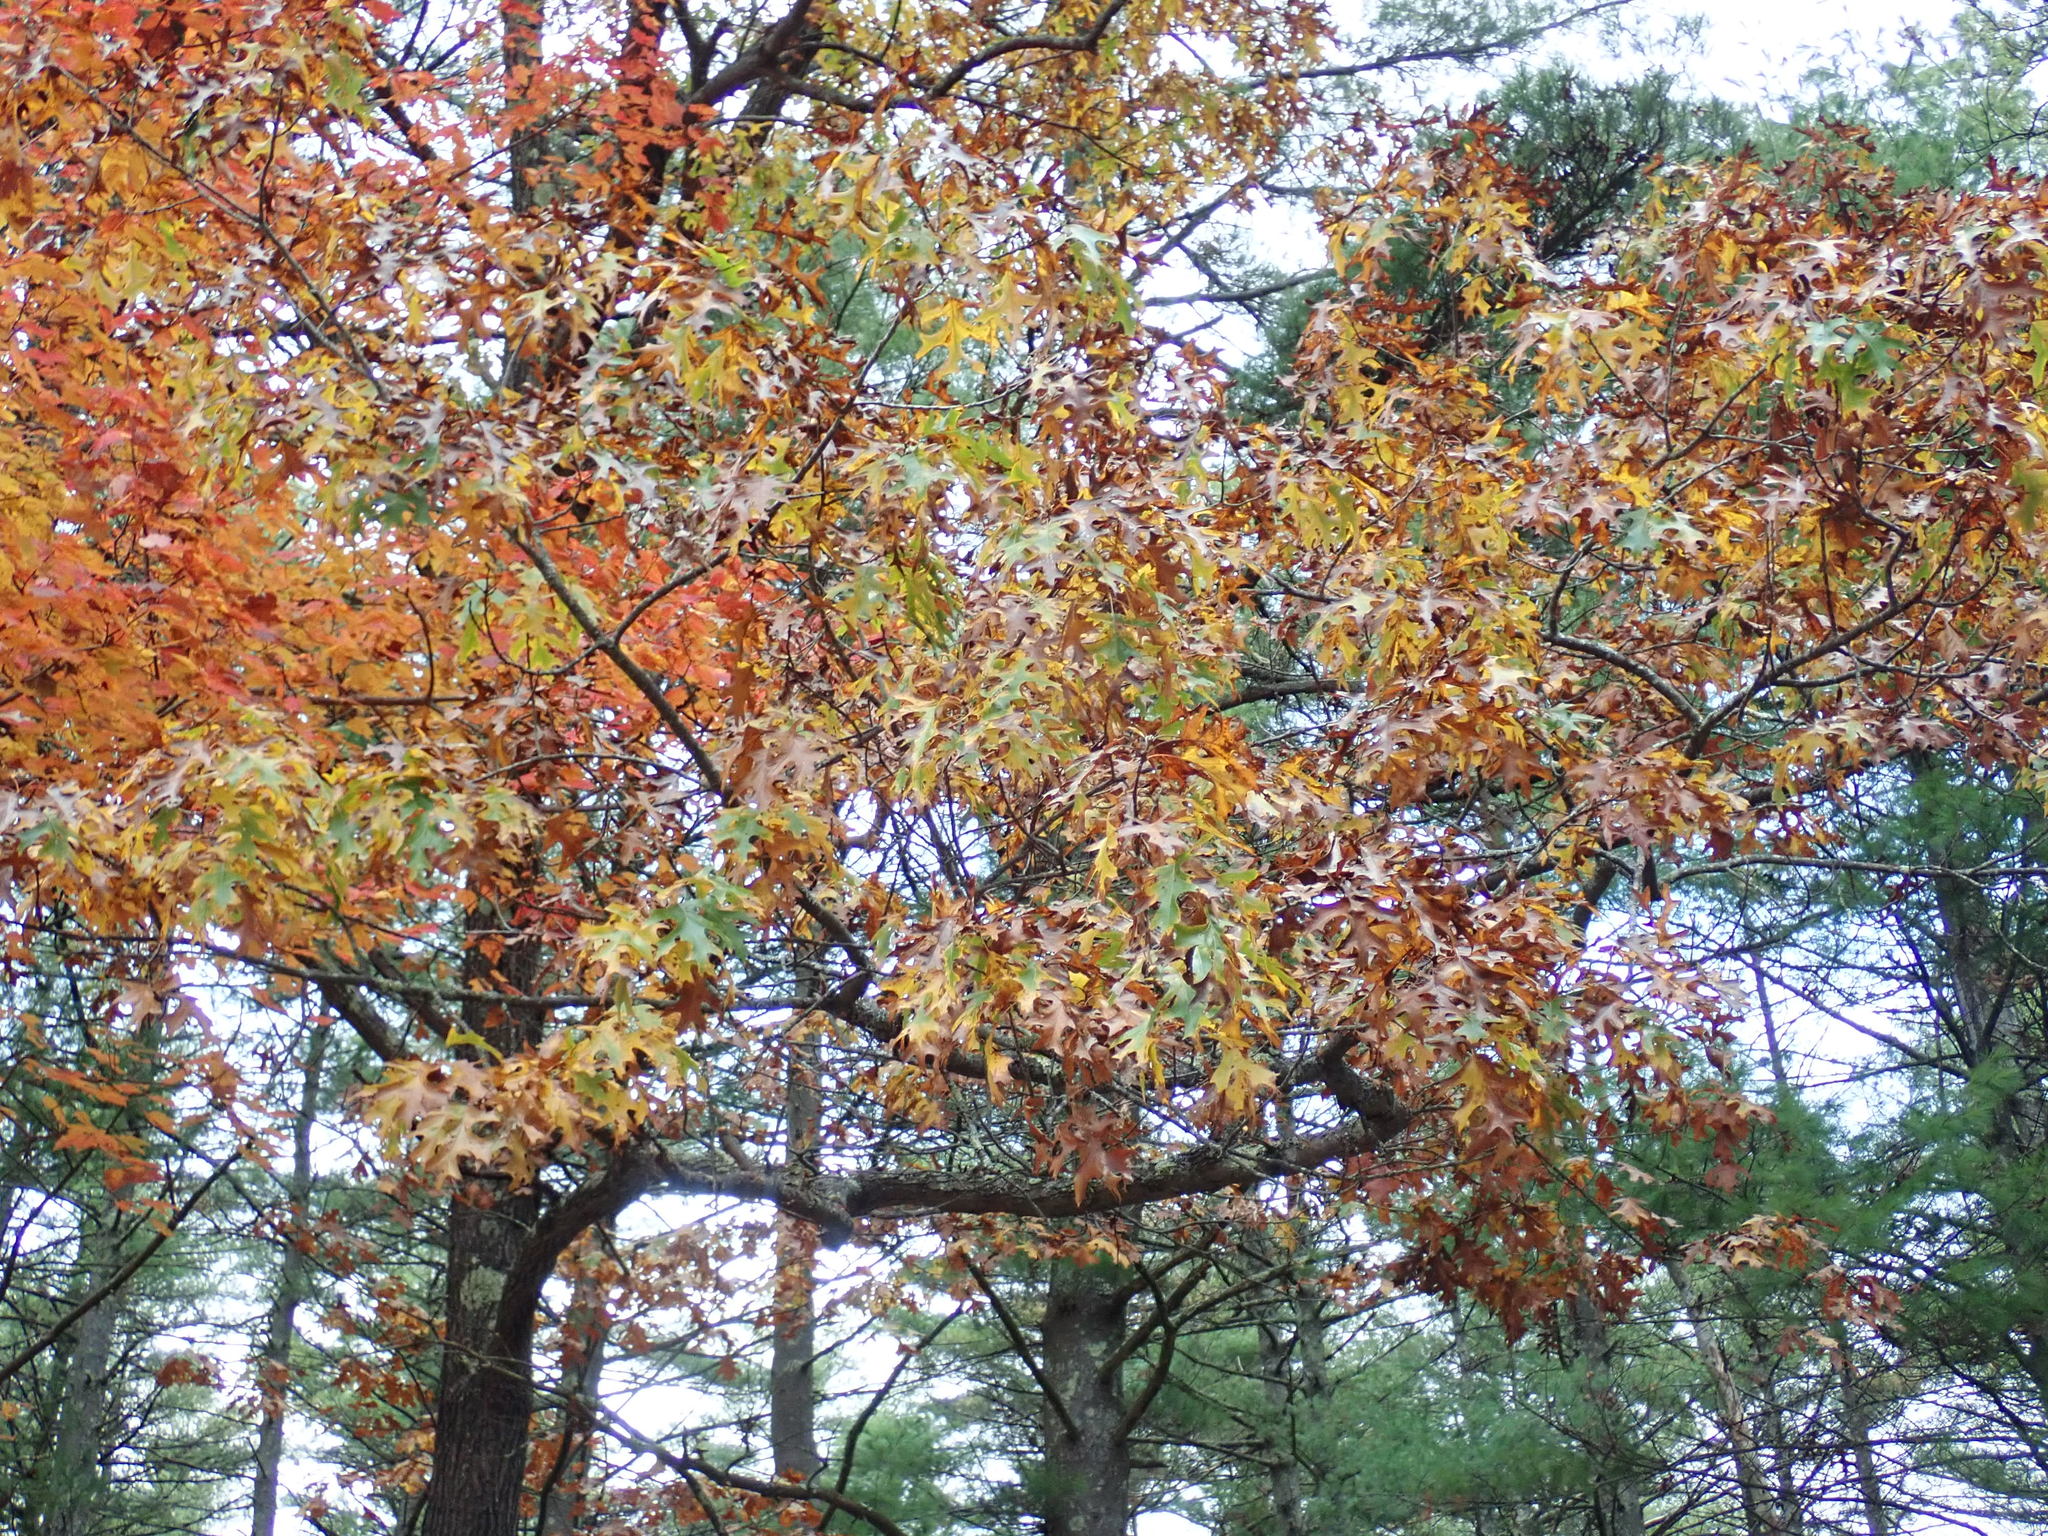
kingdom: Plantae
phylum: Tracheophyta
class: Magnoliopsida
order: Fagales
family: Fagaceae
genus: Quercus
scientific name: Quercus coccinea
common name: Scarlet oak
